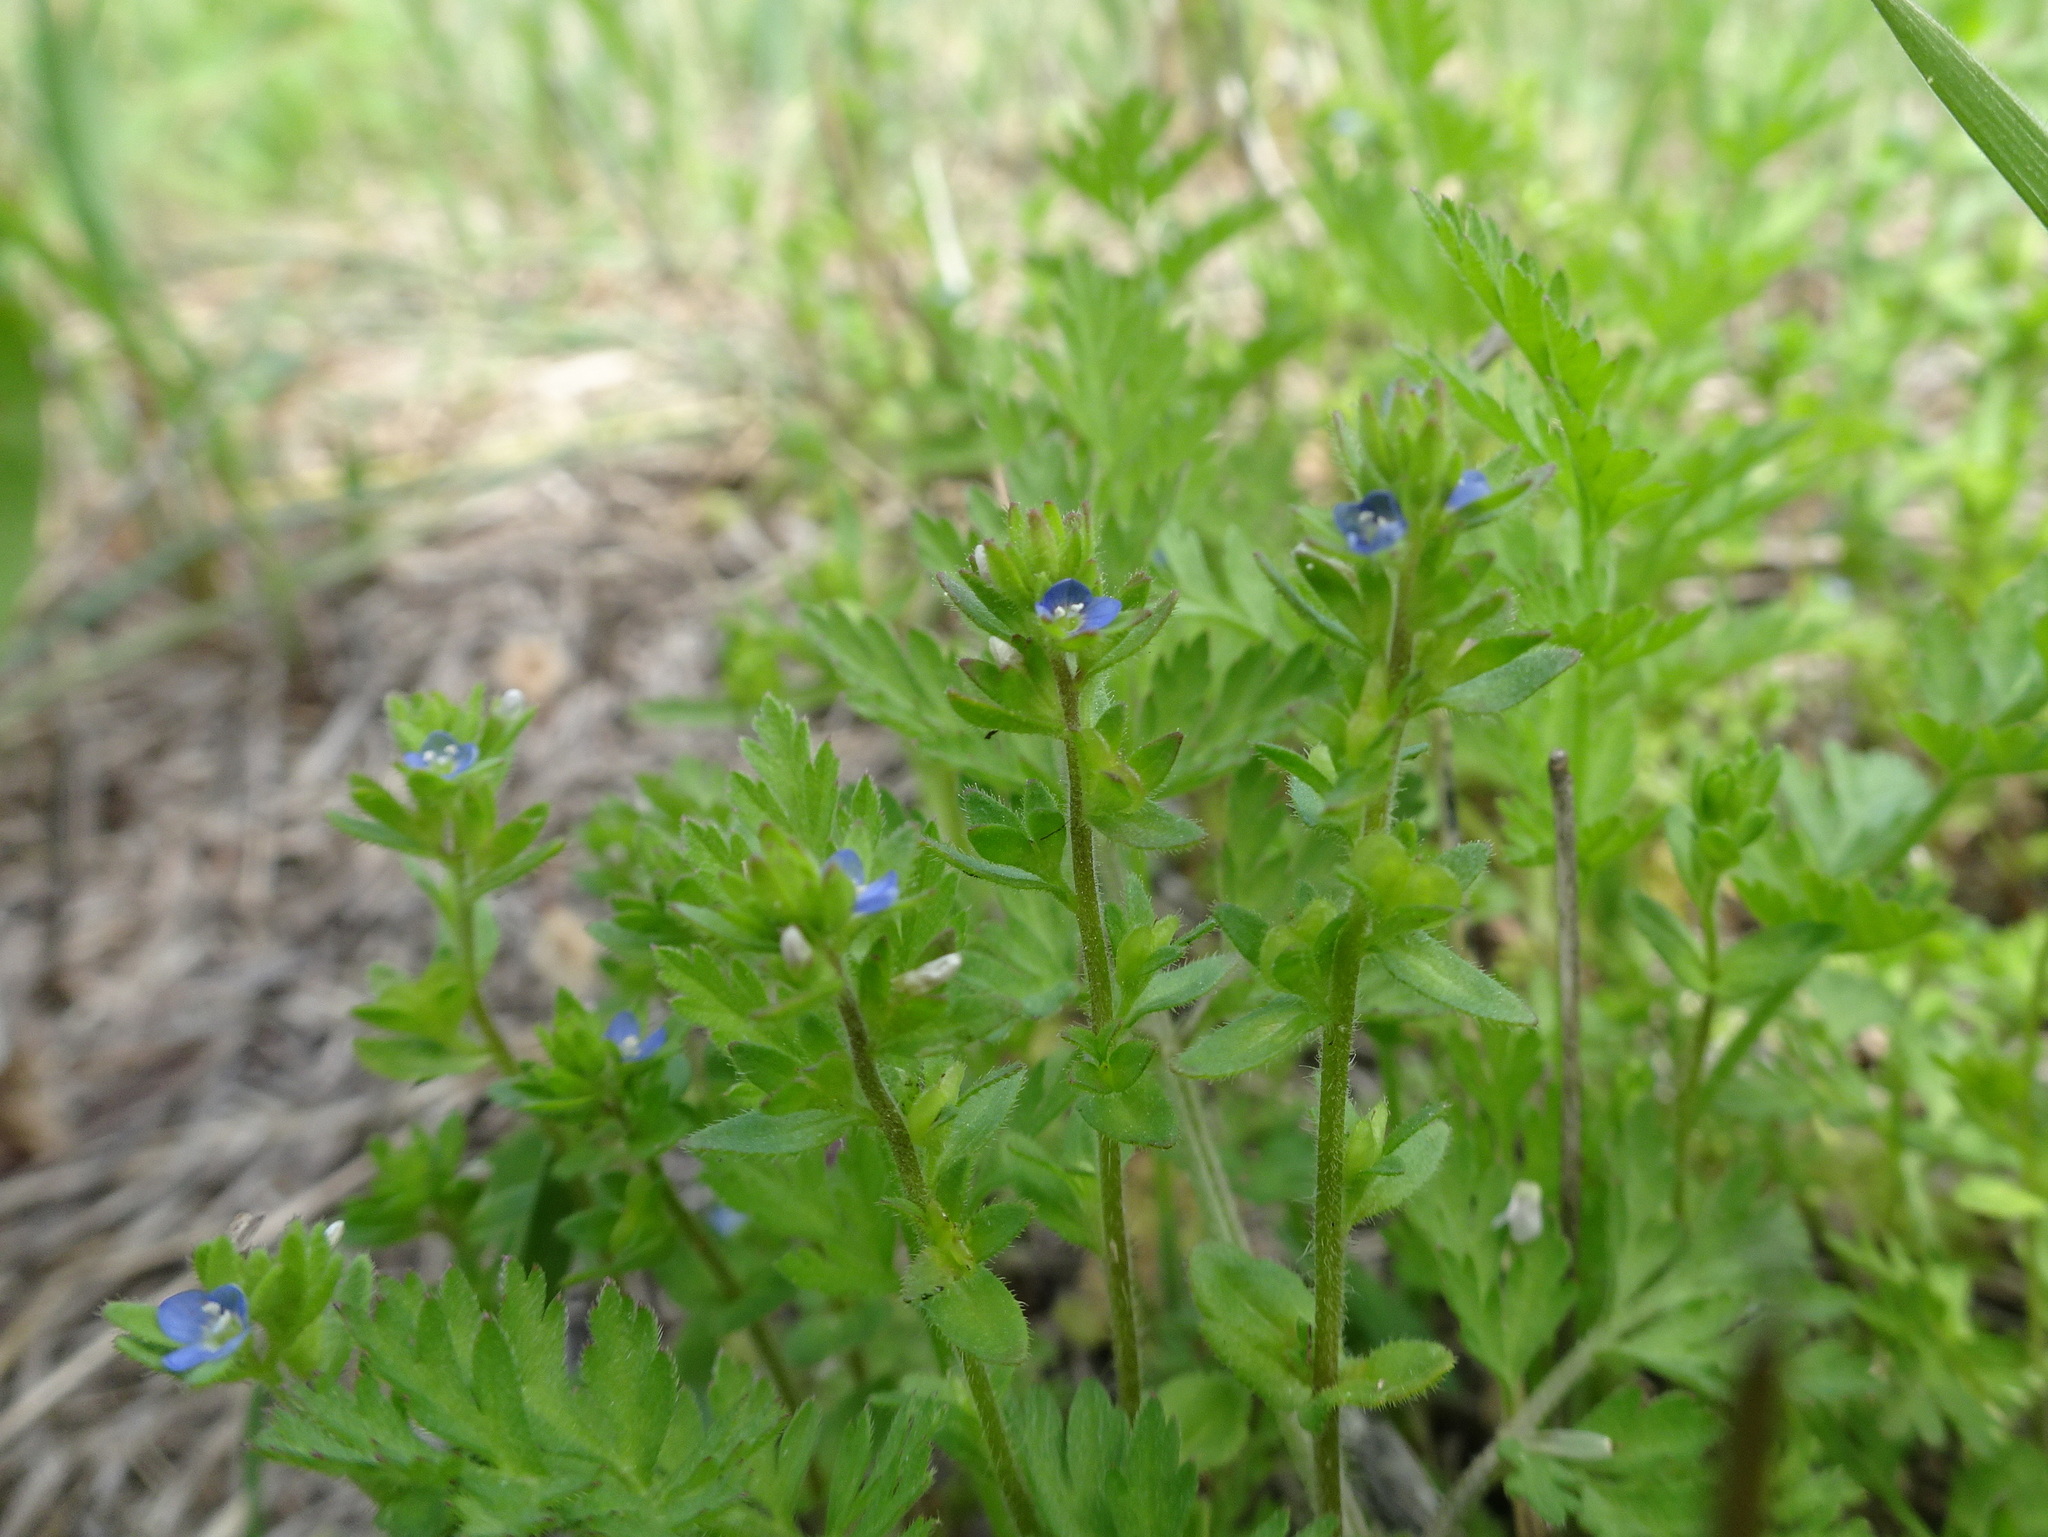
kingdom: Plantae
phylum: Tracheophyta
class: Magnoliopsida
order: Lamiales
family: Plantaginaceae
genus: Veronica
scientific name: Veronica arvensis
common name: Corn speedwell
